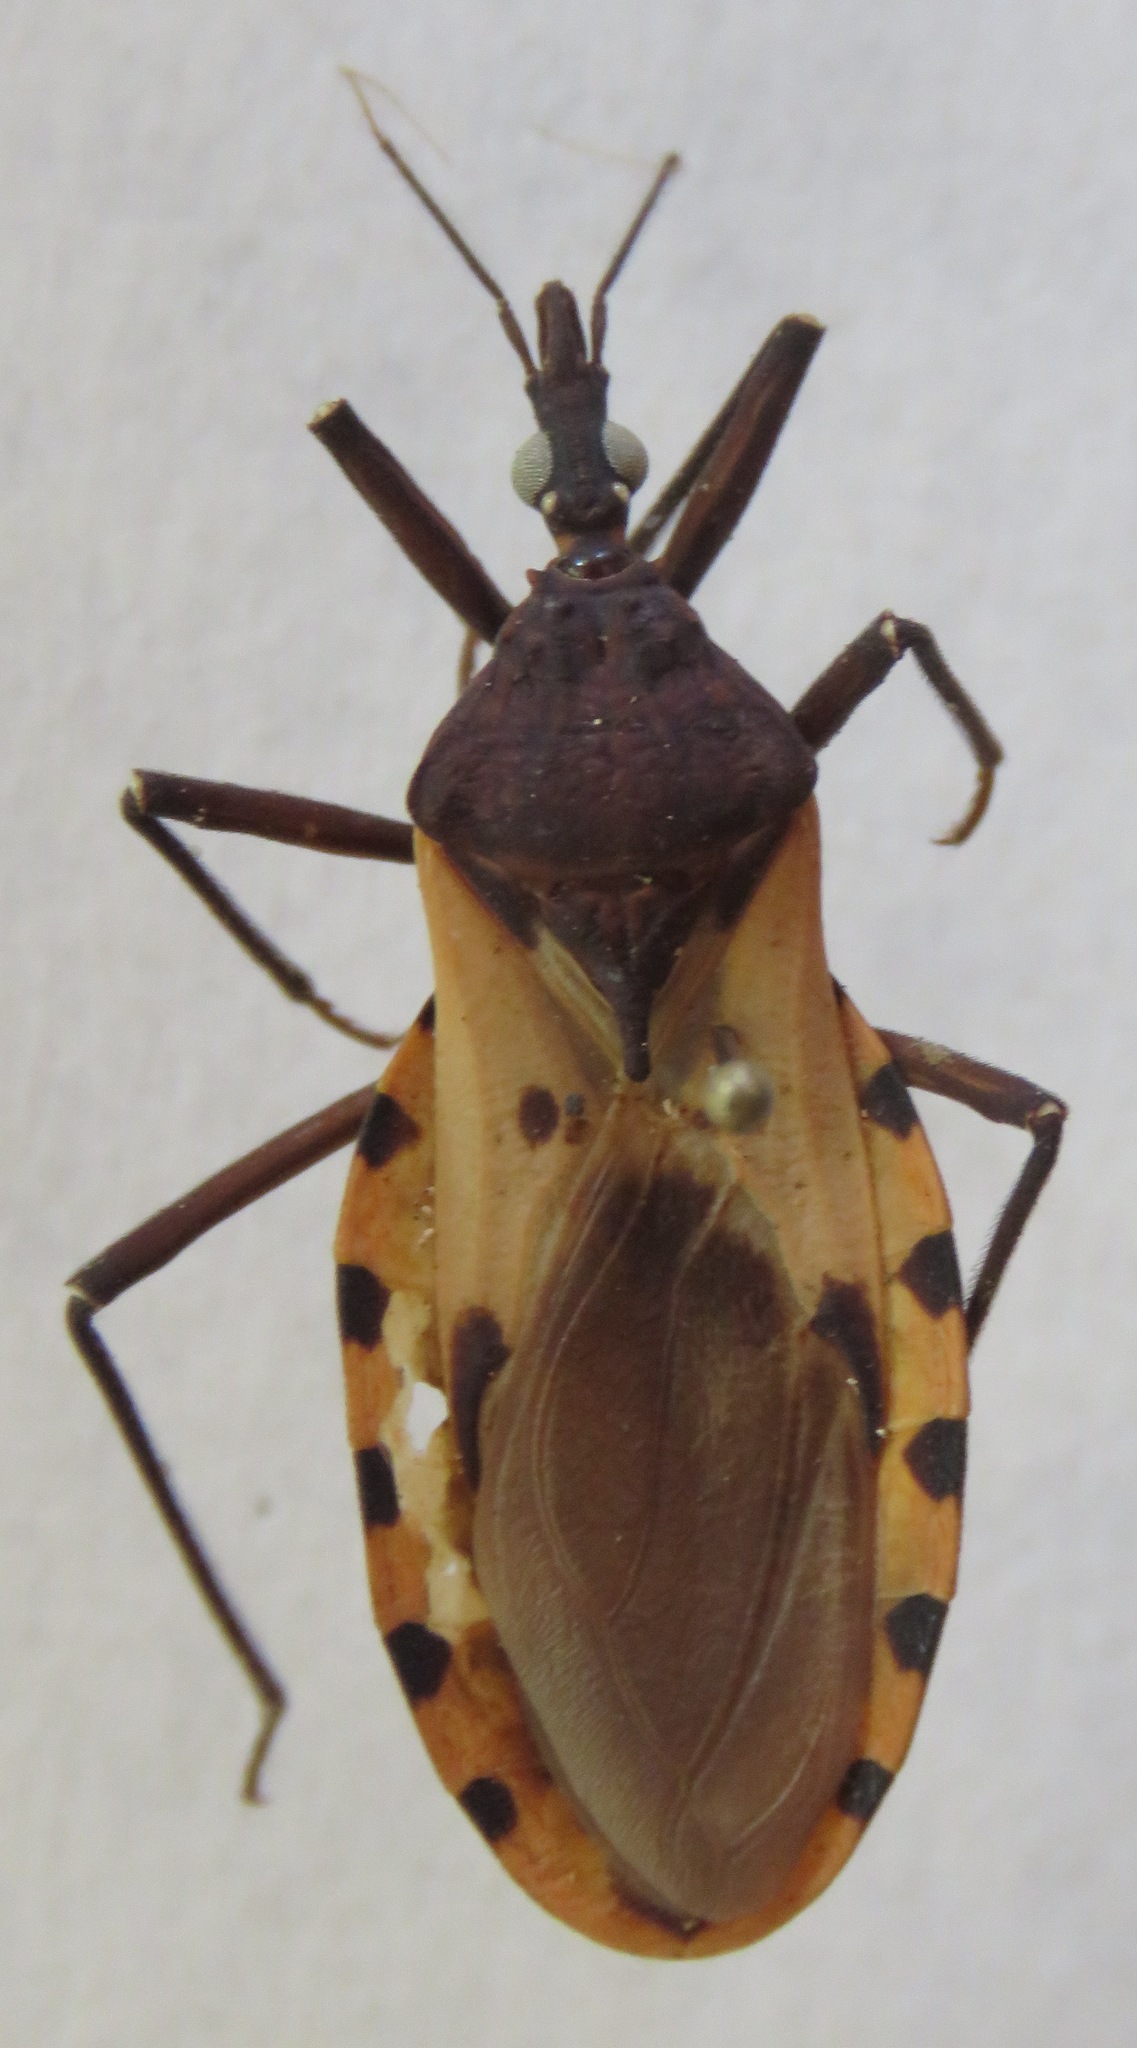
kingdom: Animalia
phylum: Arthropoda
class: Insecta
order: Hemiptera
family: Reduviidae
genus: Meccus
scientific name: Meccus dimidiatus
